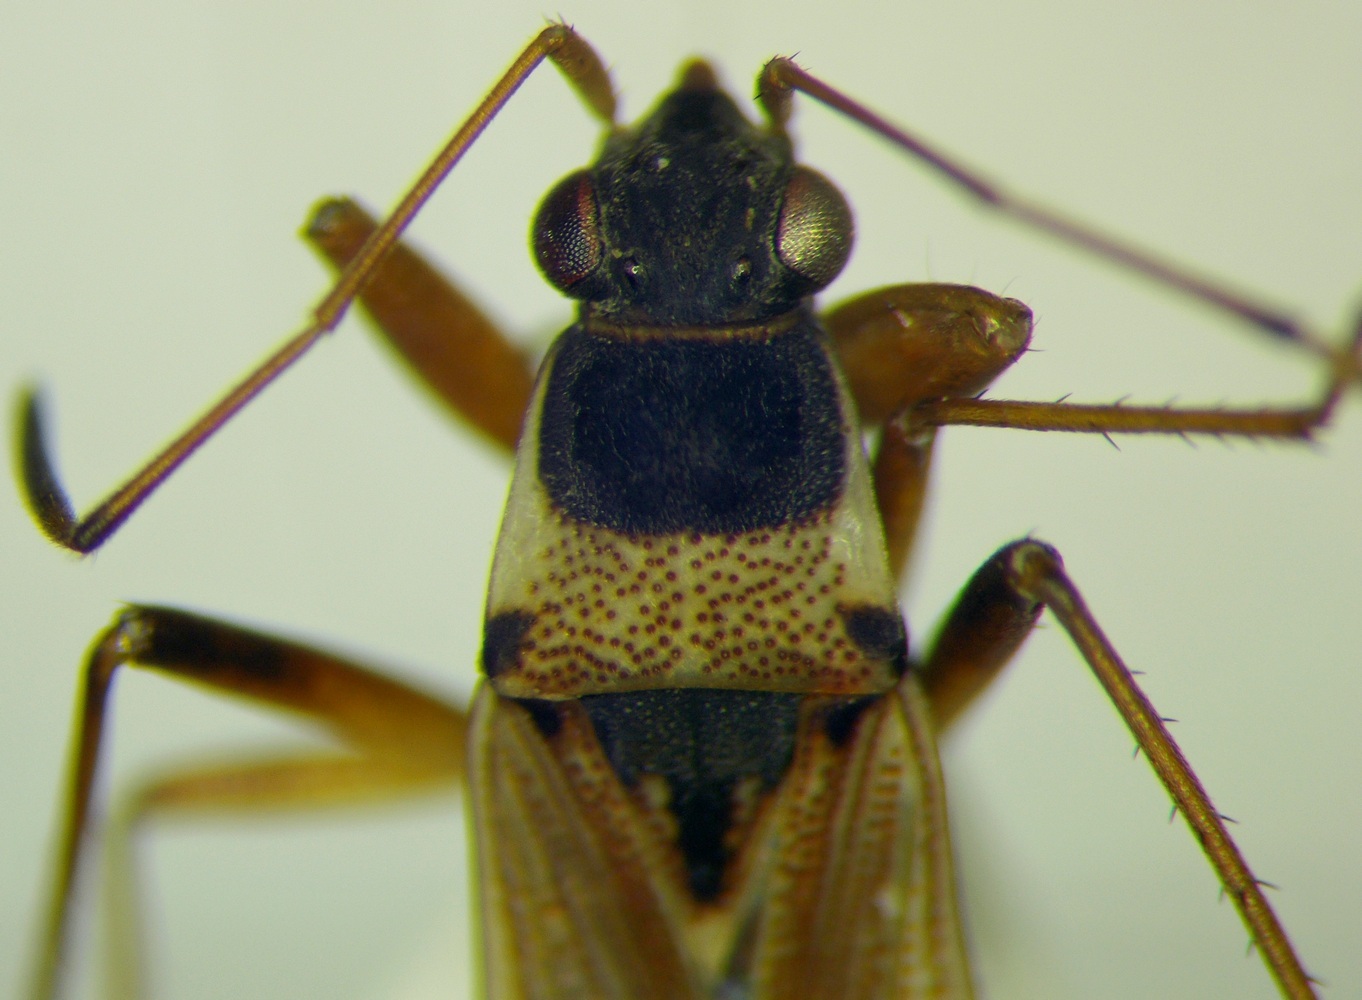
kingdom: Animalia
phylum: Arthropoda
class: Insecta
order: Hemiptera
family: Rhyparochromidae
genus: Beosus
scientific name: Beosus quadripunctatus
